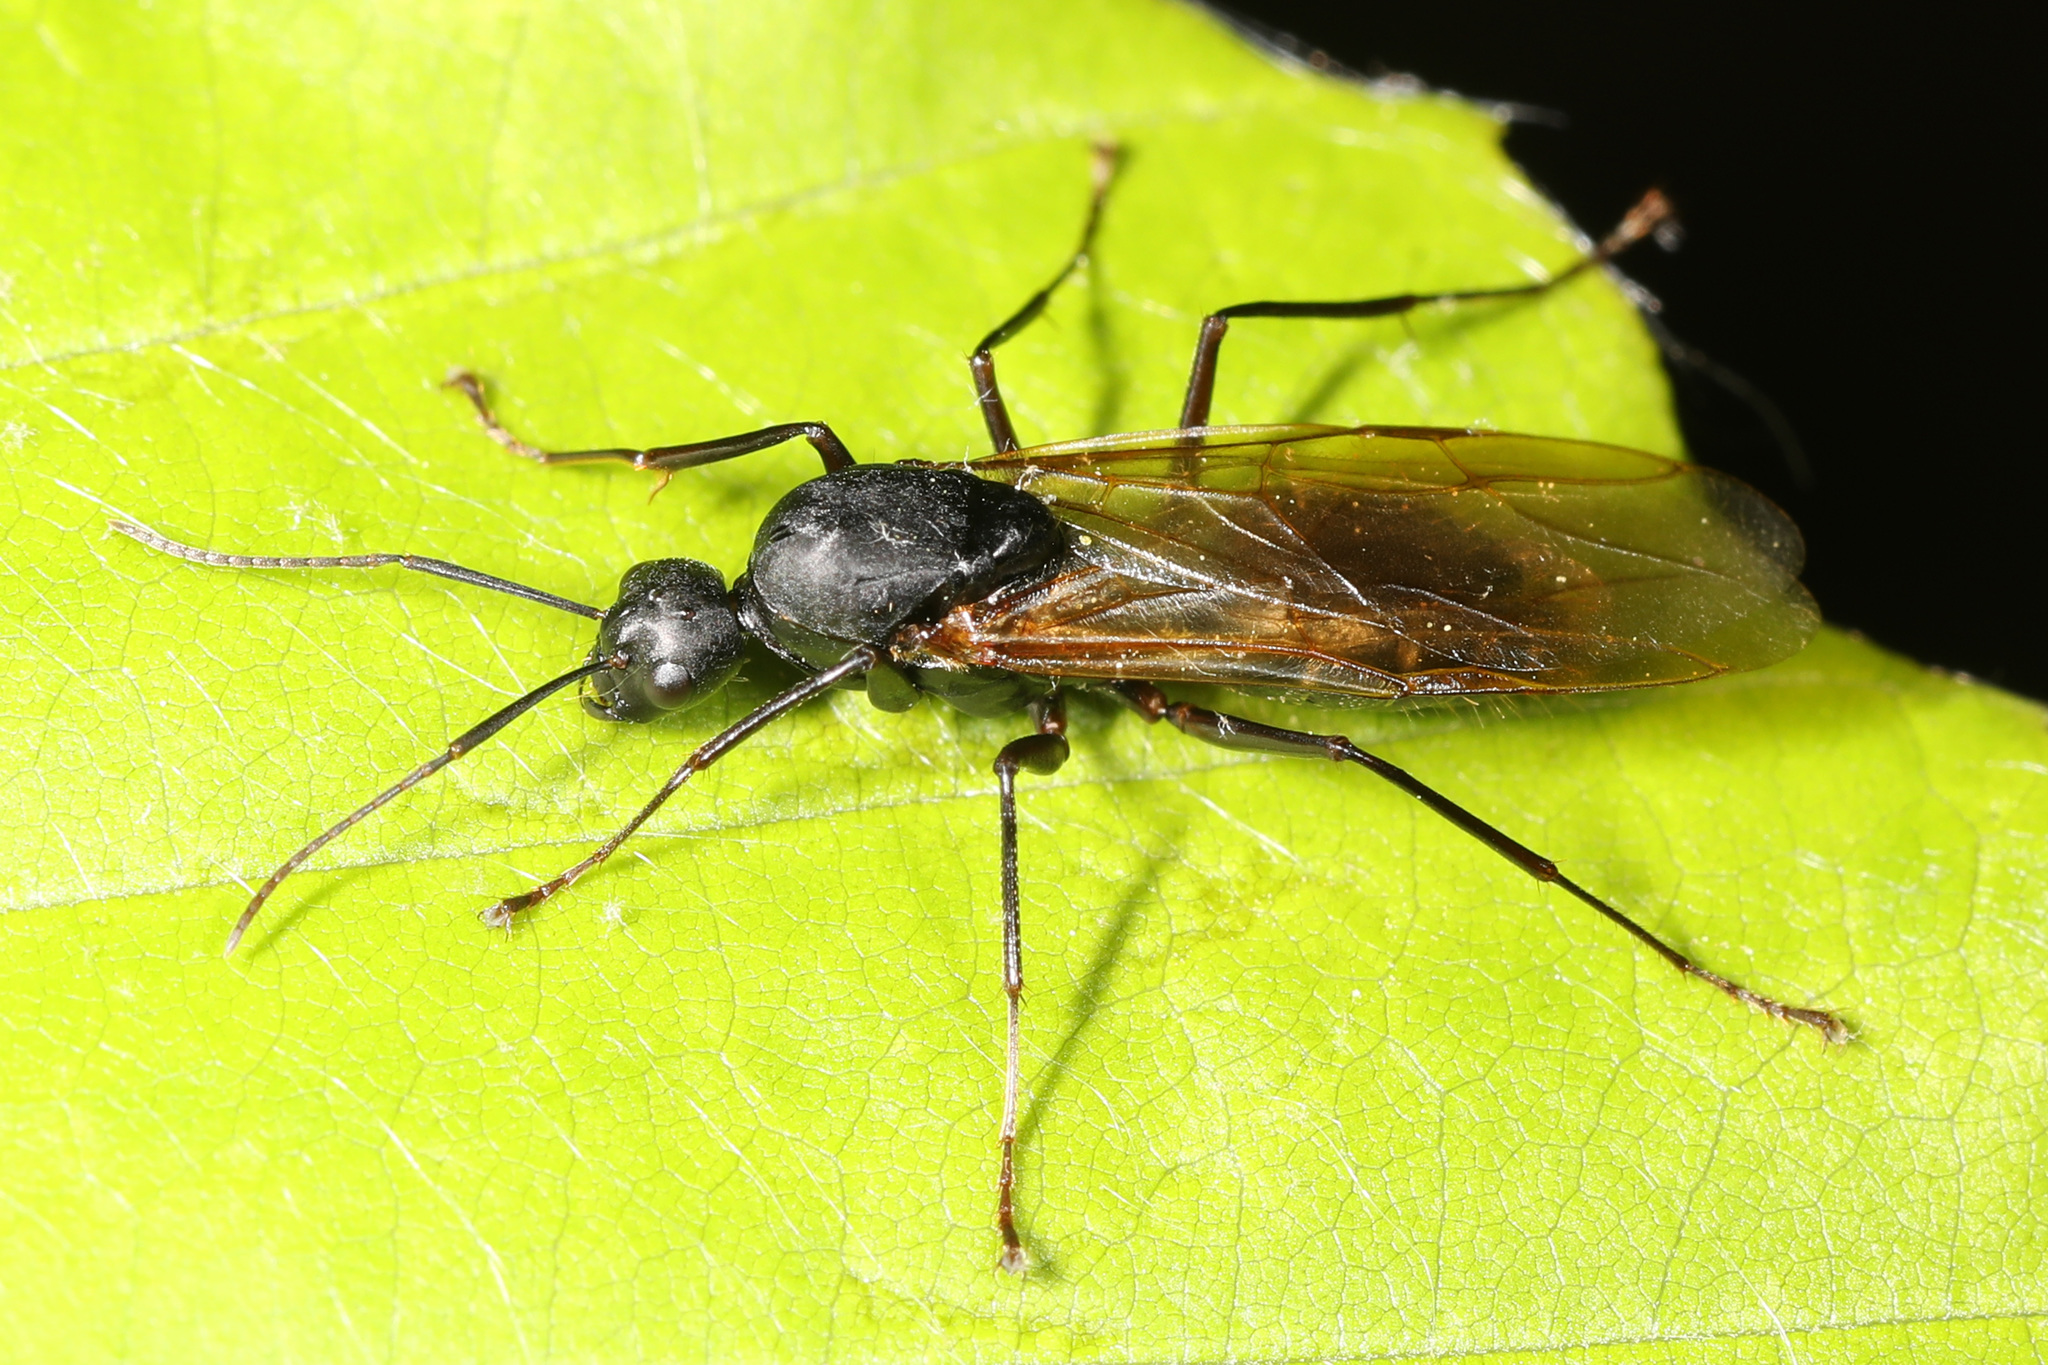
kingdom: Animalia
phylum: Arthropoda
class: Insecta
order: Hymenoptera
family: Formicidae
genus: Camponotus
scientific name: Camponotus pennsylvanicus
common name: Black carpenter ant
